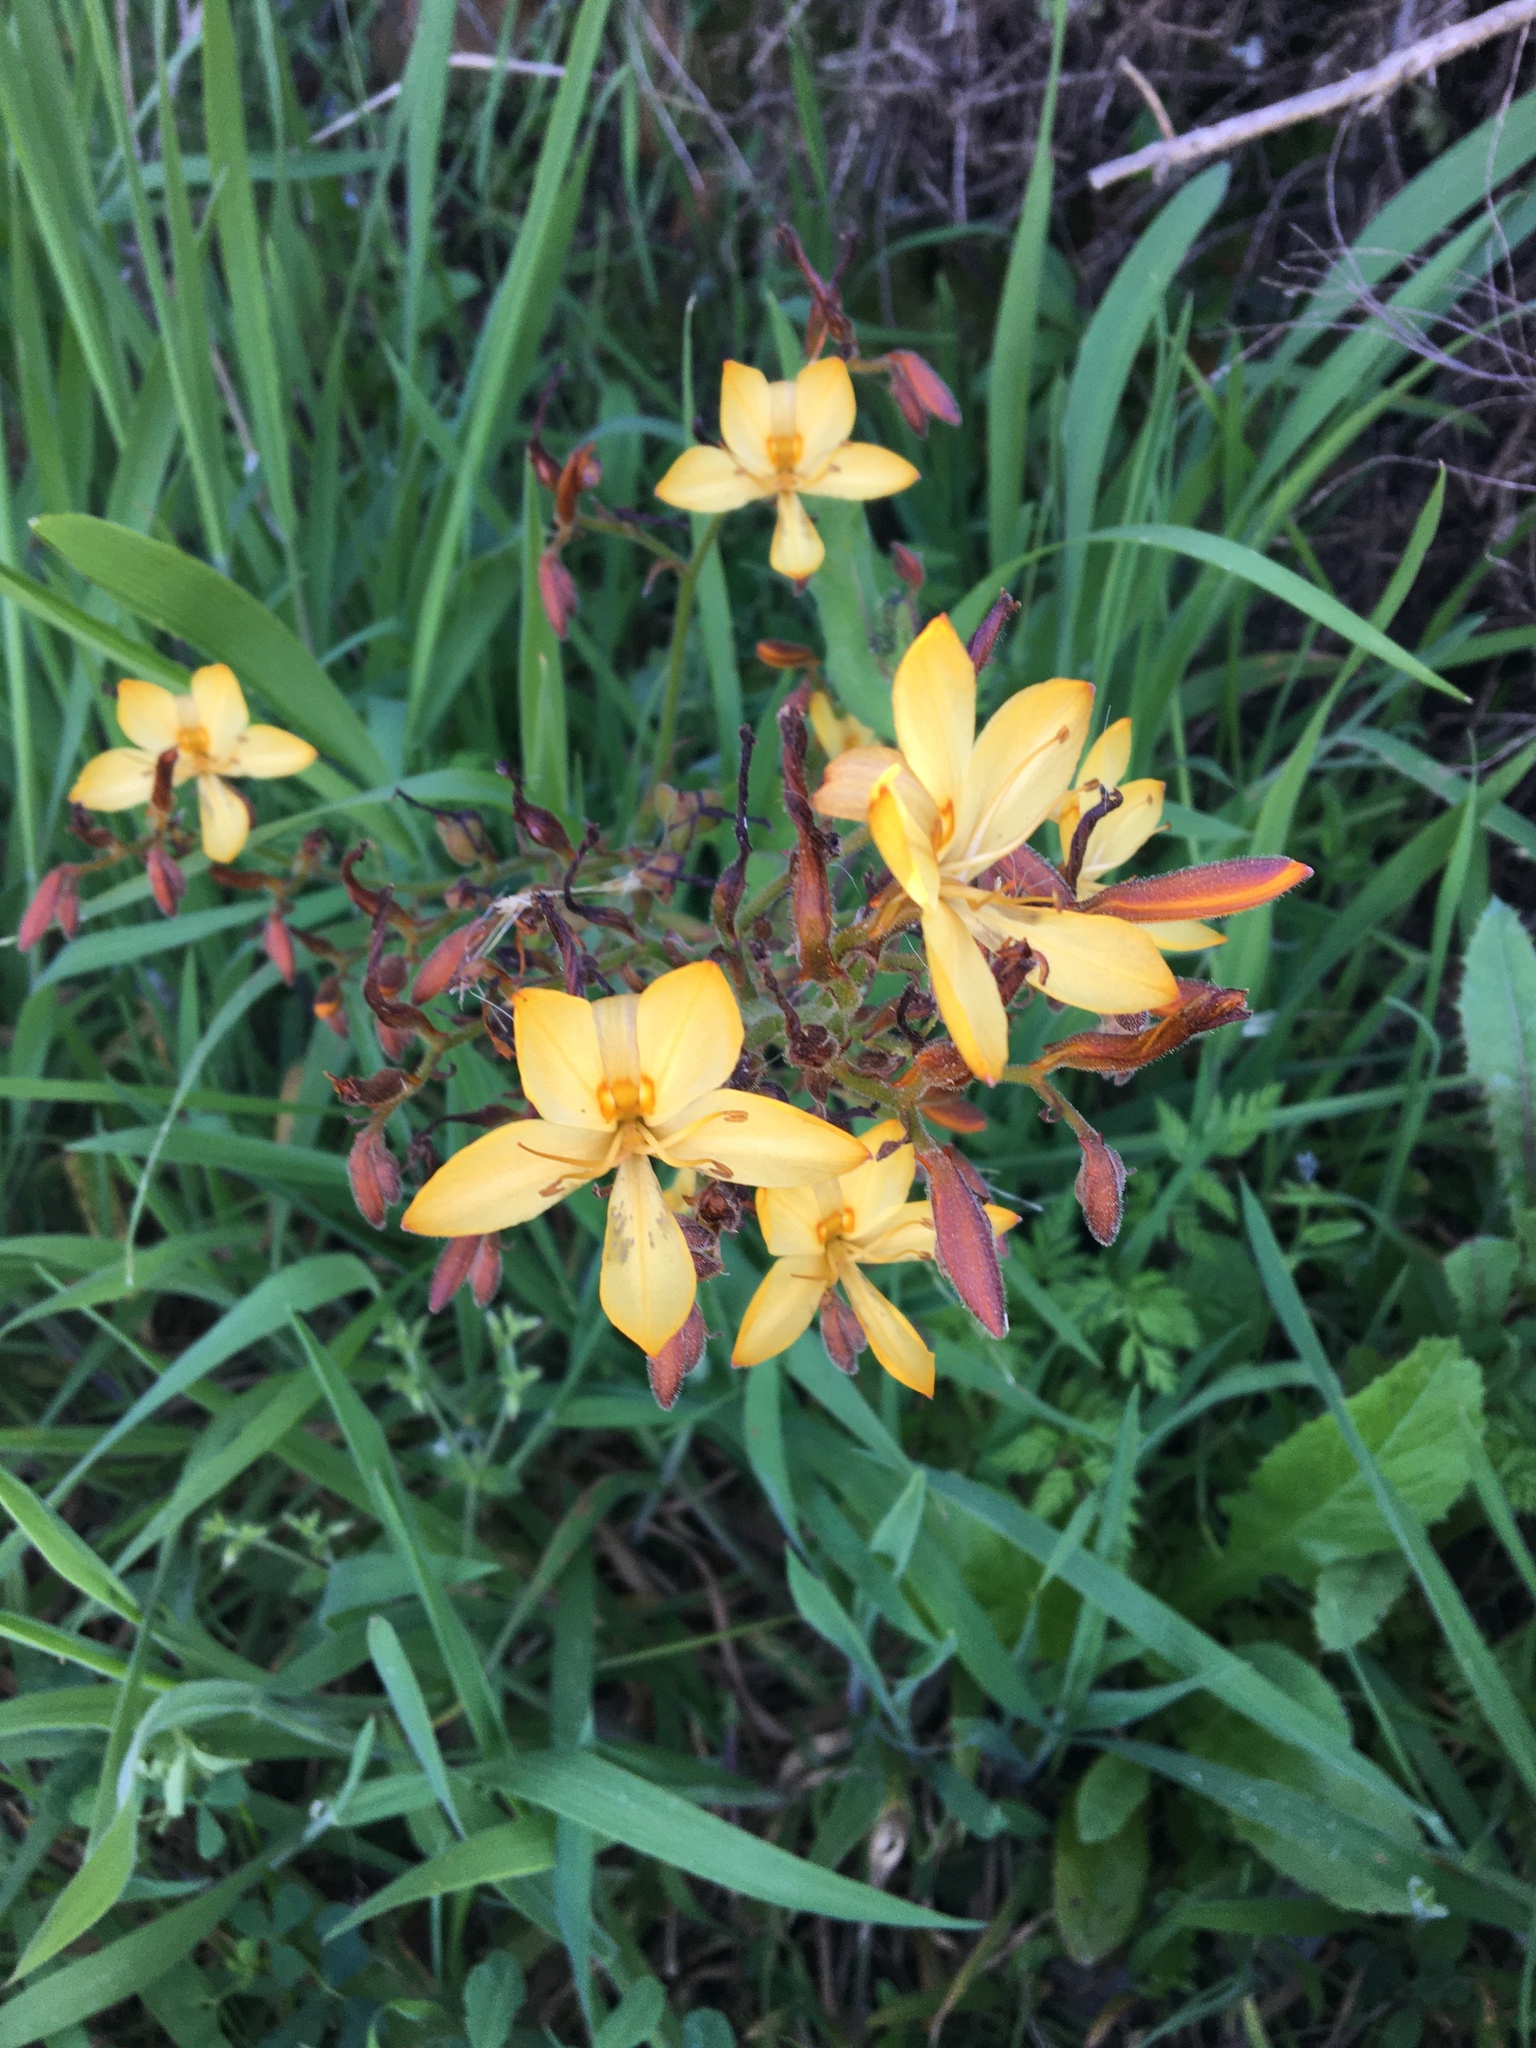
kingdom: Plantae
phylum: Tracheophyta
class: Liliopsida
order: Commelinales
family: Haemodoraceae
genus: Wachendorfia
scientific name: Wachendorfia paniculata
